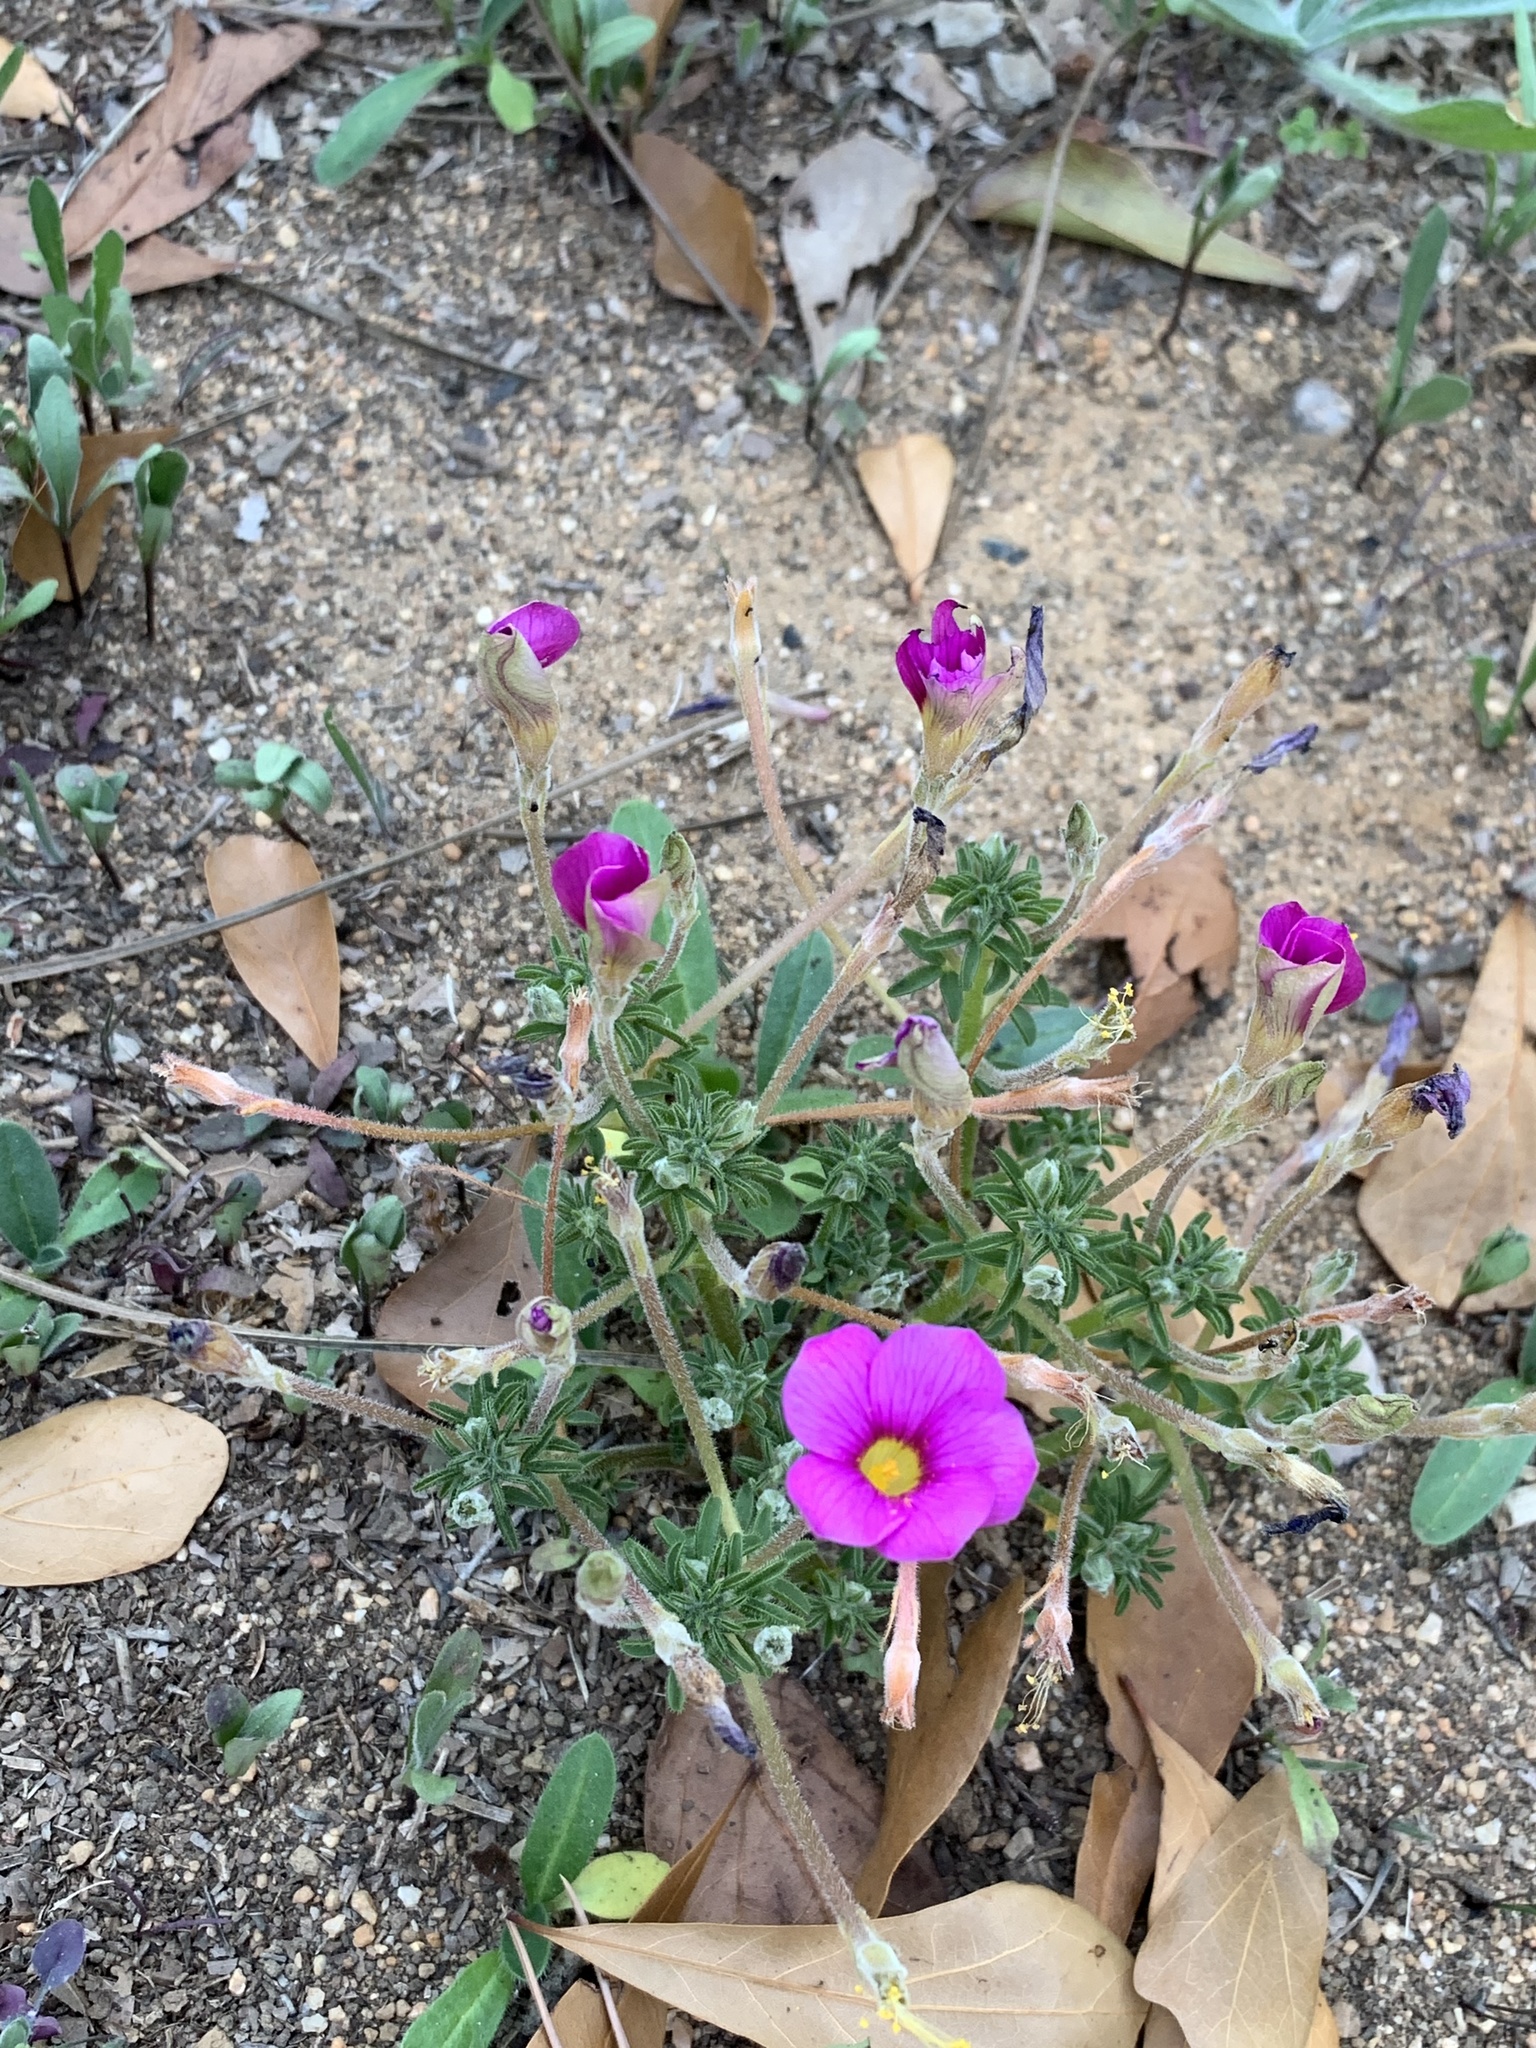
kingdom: Plantae
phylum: Tracheophyta
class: Magnoliopsida
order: Oxalidales
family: Oxalidaceae
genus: Oxalis
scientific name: Oxalis hirta
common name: Tropical woodsorrel
